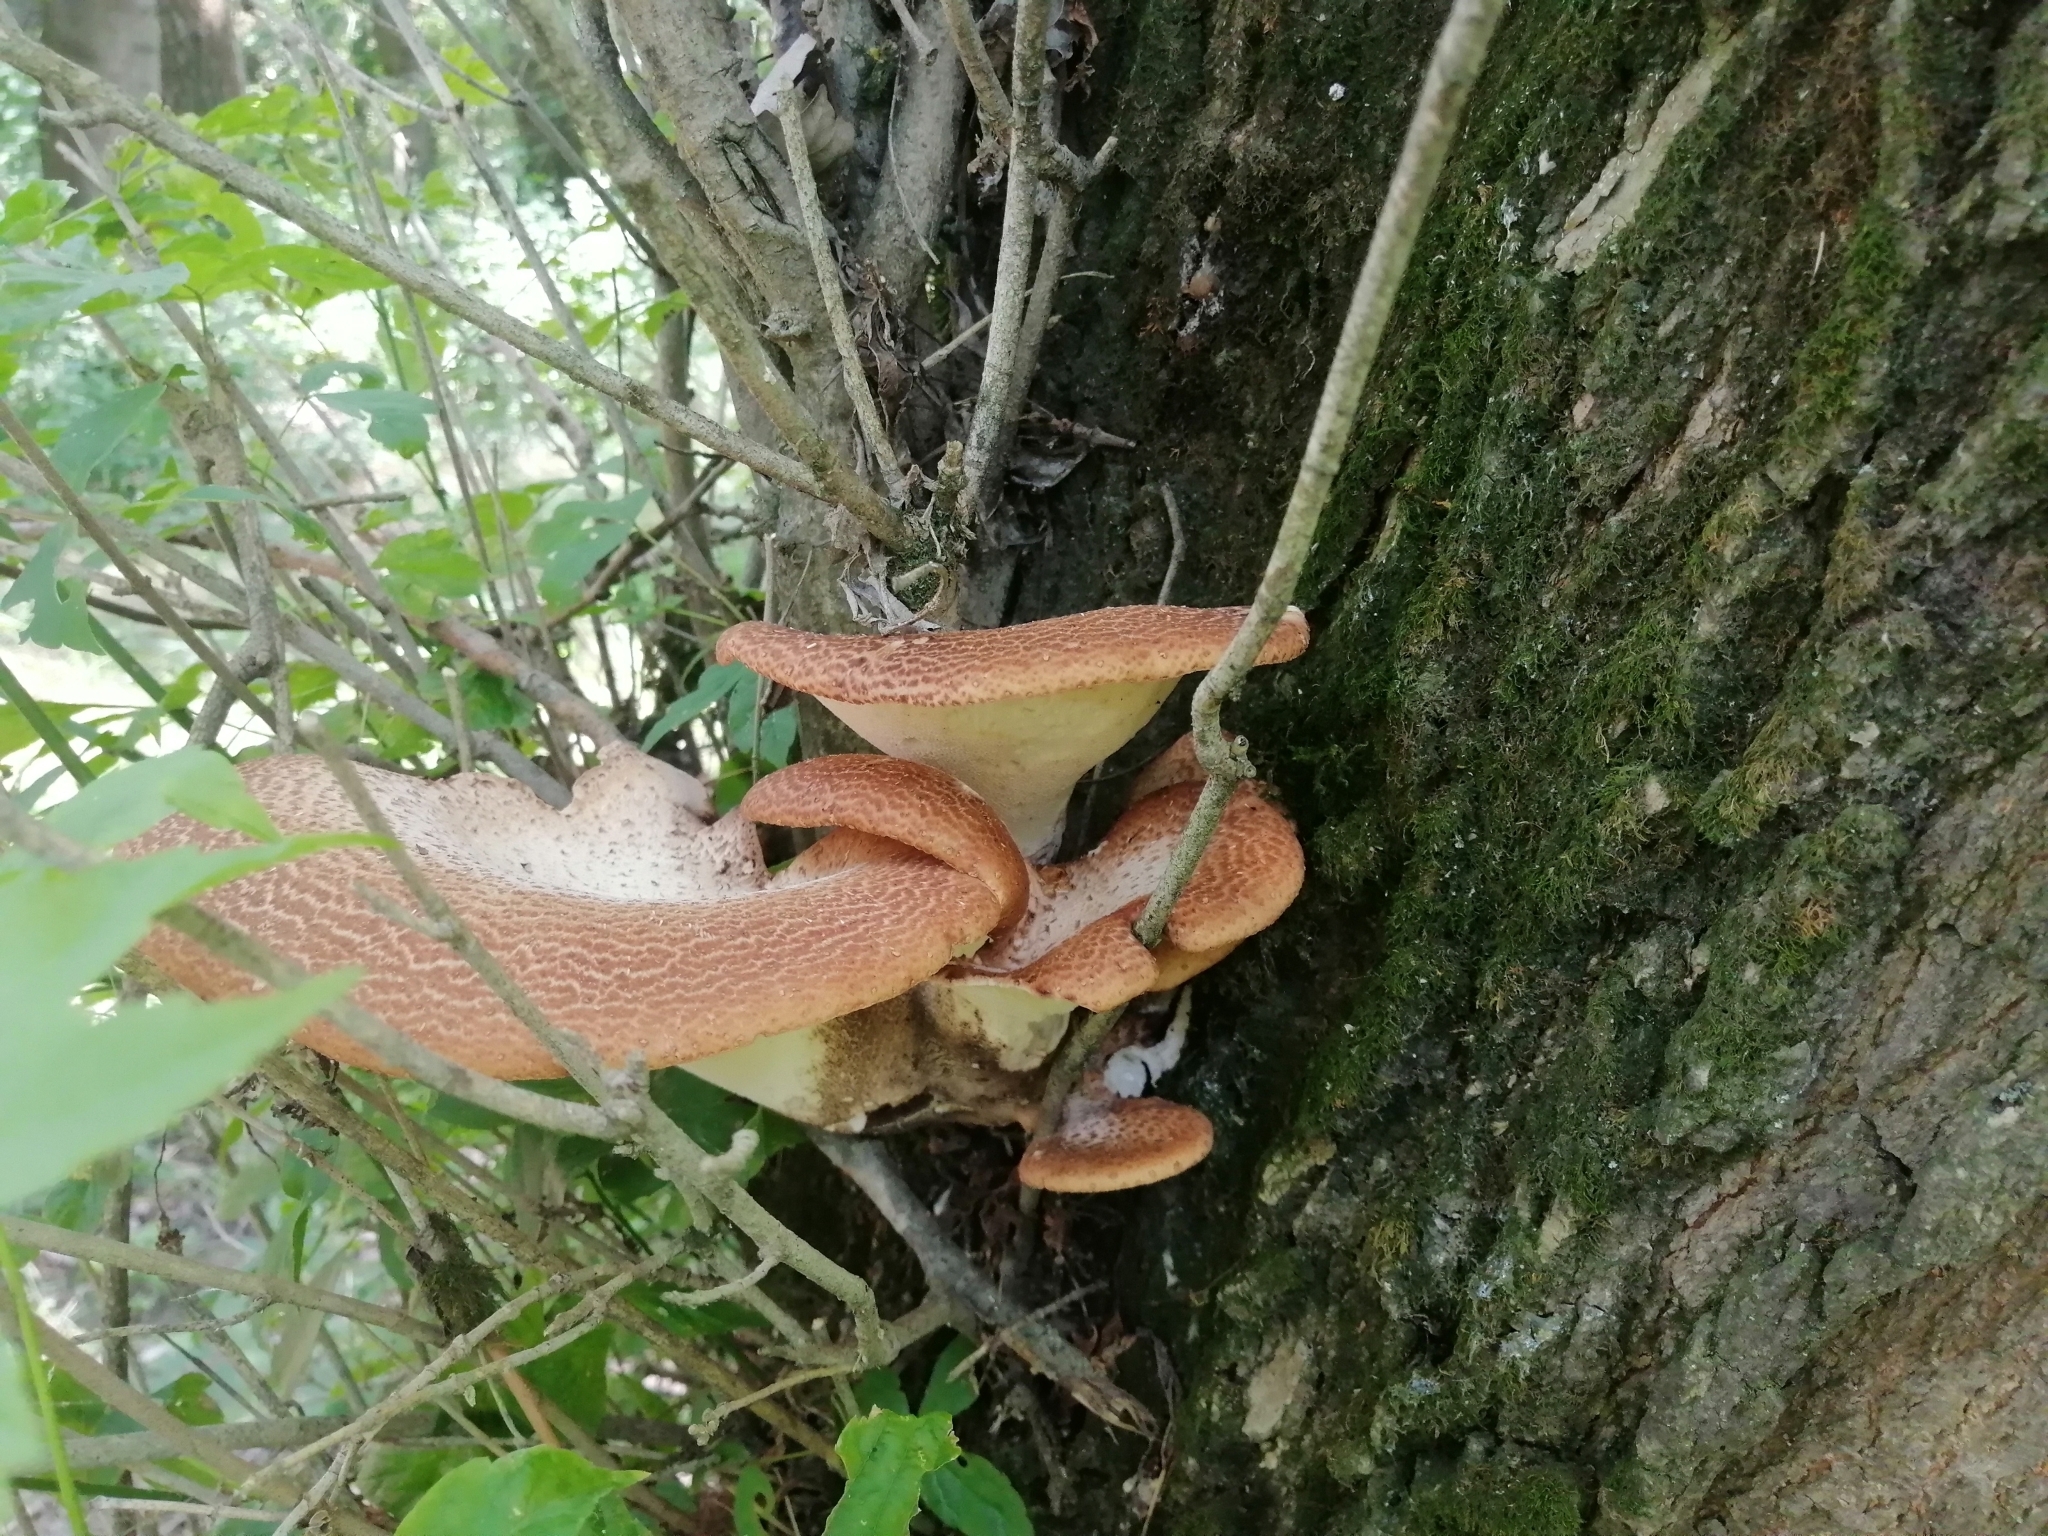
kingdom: Fungi
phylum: Basidiomycota
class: Agaricomycetes
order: Polyporales
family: Polyporaceae
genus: Cerioporus
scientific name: Cerioporus squamosus
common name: Dryad's saddle
